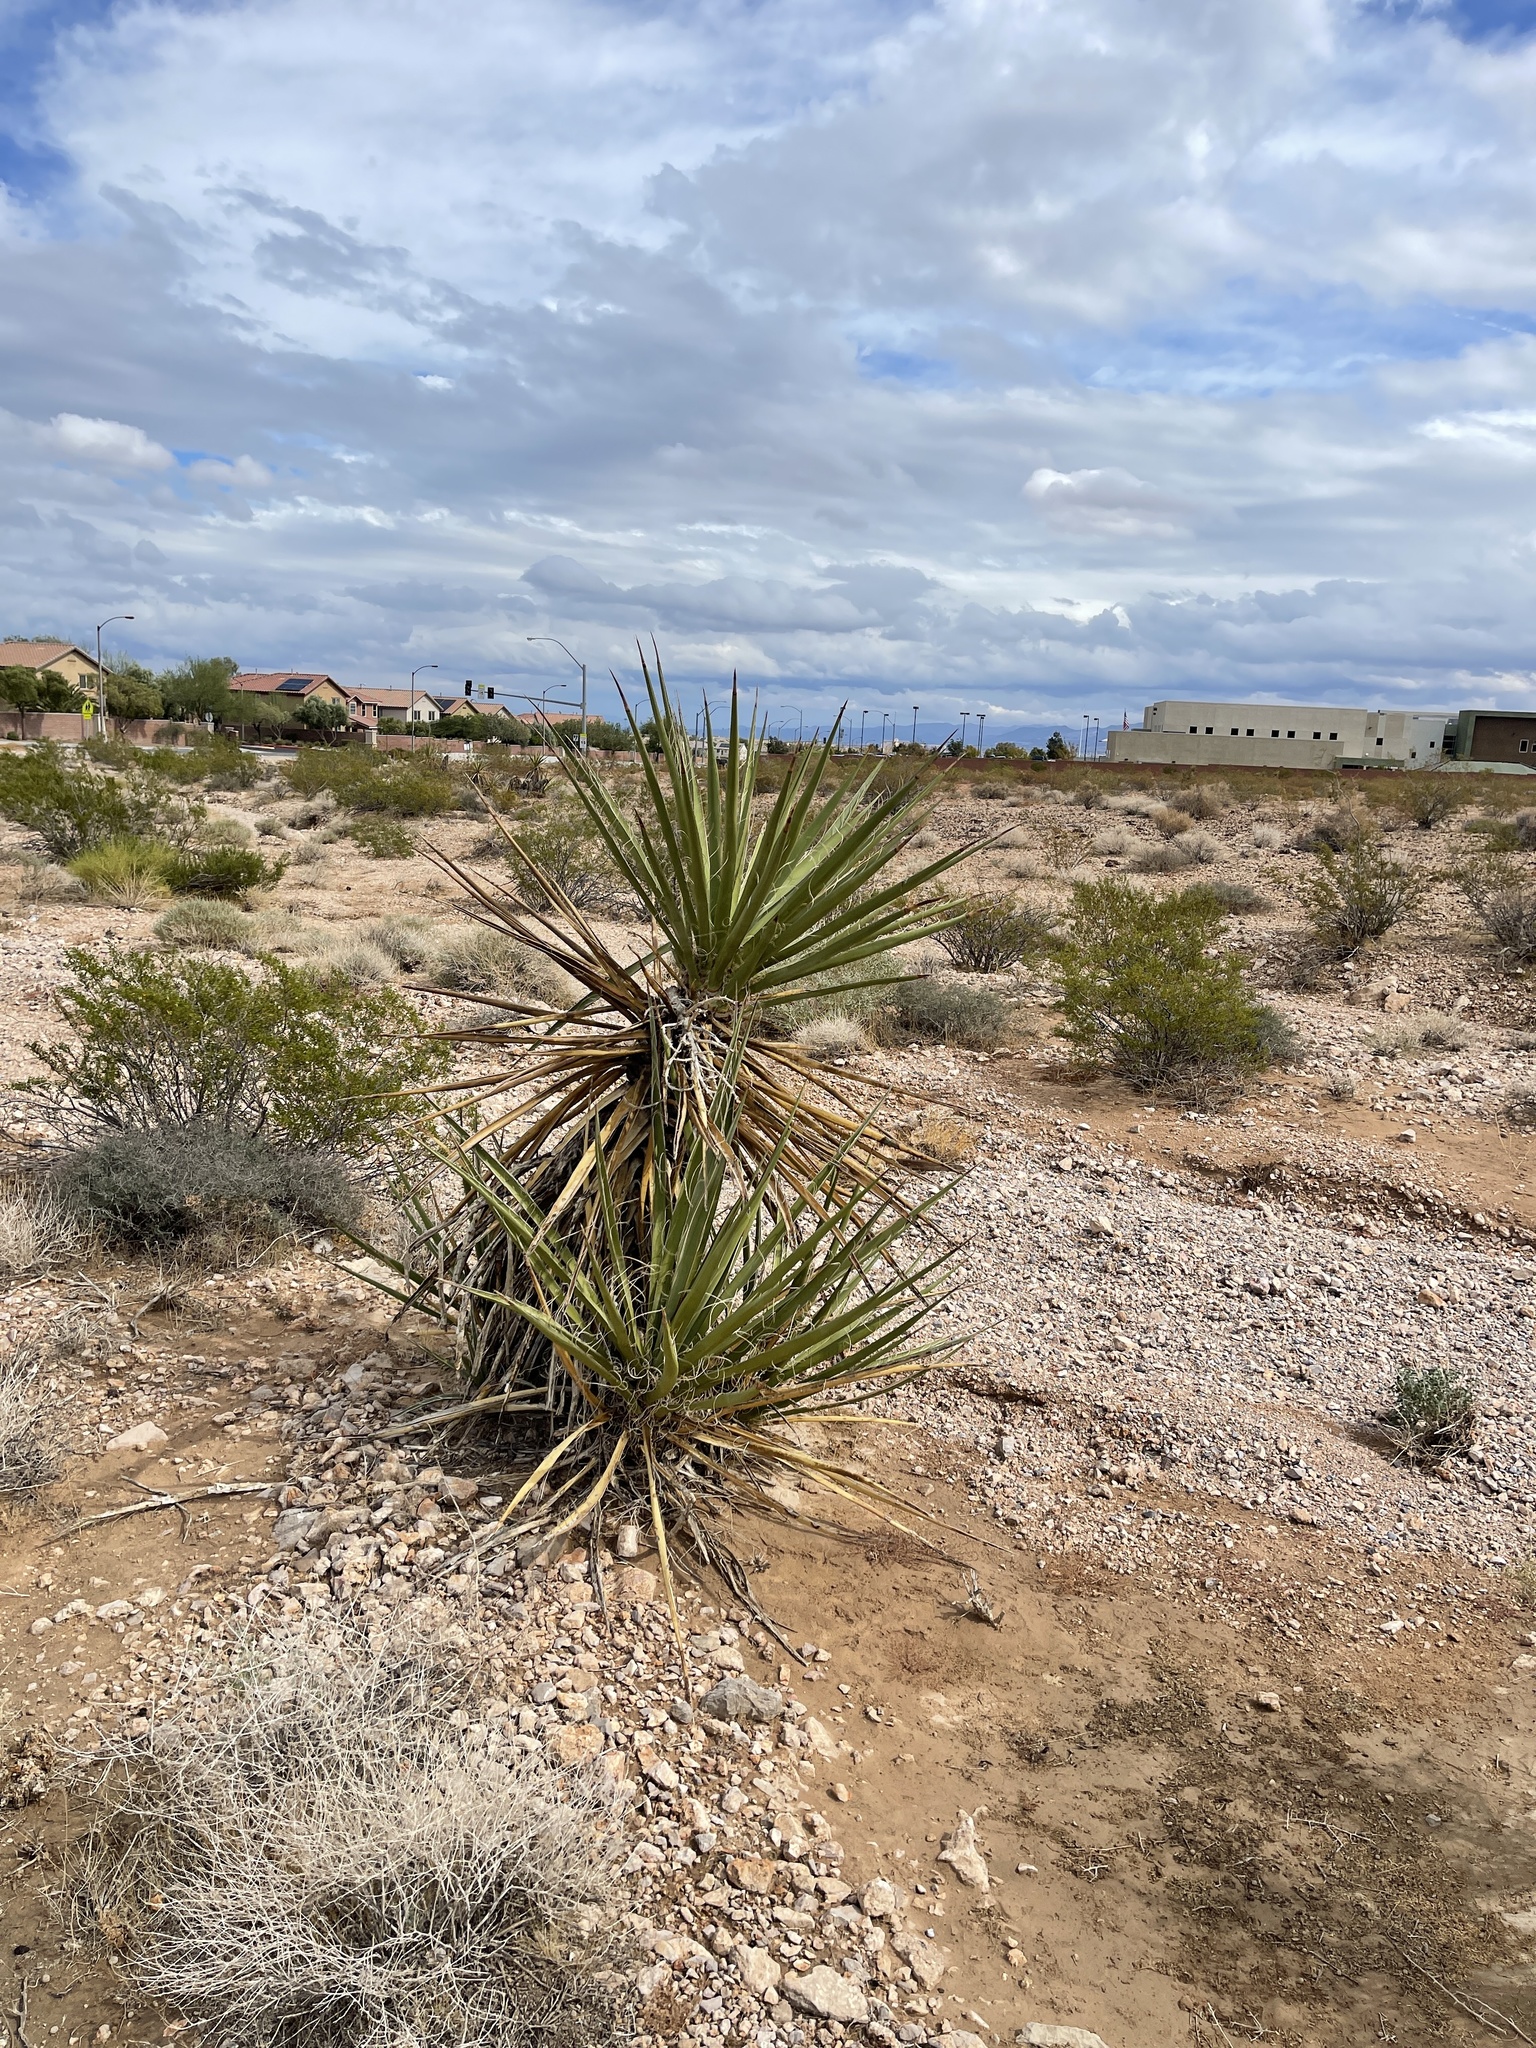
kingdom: Plantae
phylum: Tracheophyta
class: Liliopsida
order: Asparagales
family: Asparagaceae
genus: Yucca
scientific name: Yucca schidigera
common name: Mojave yucca
